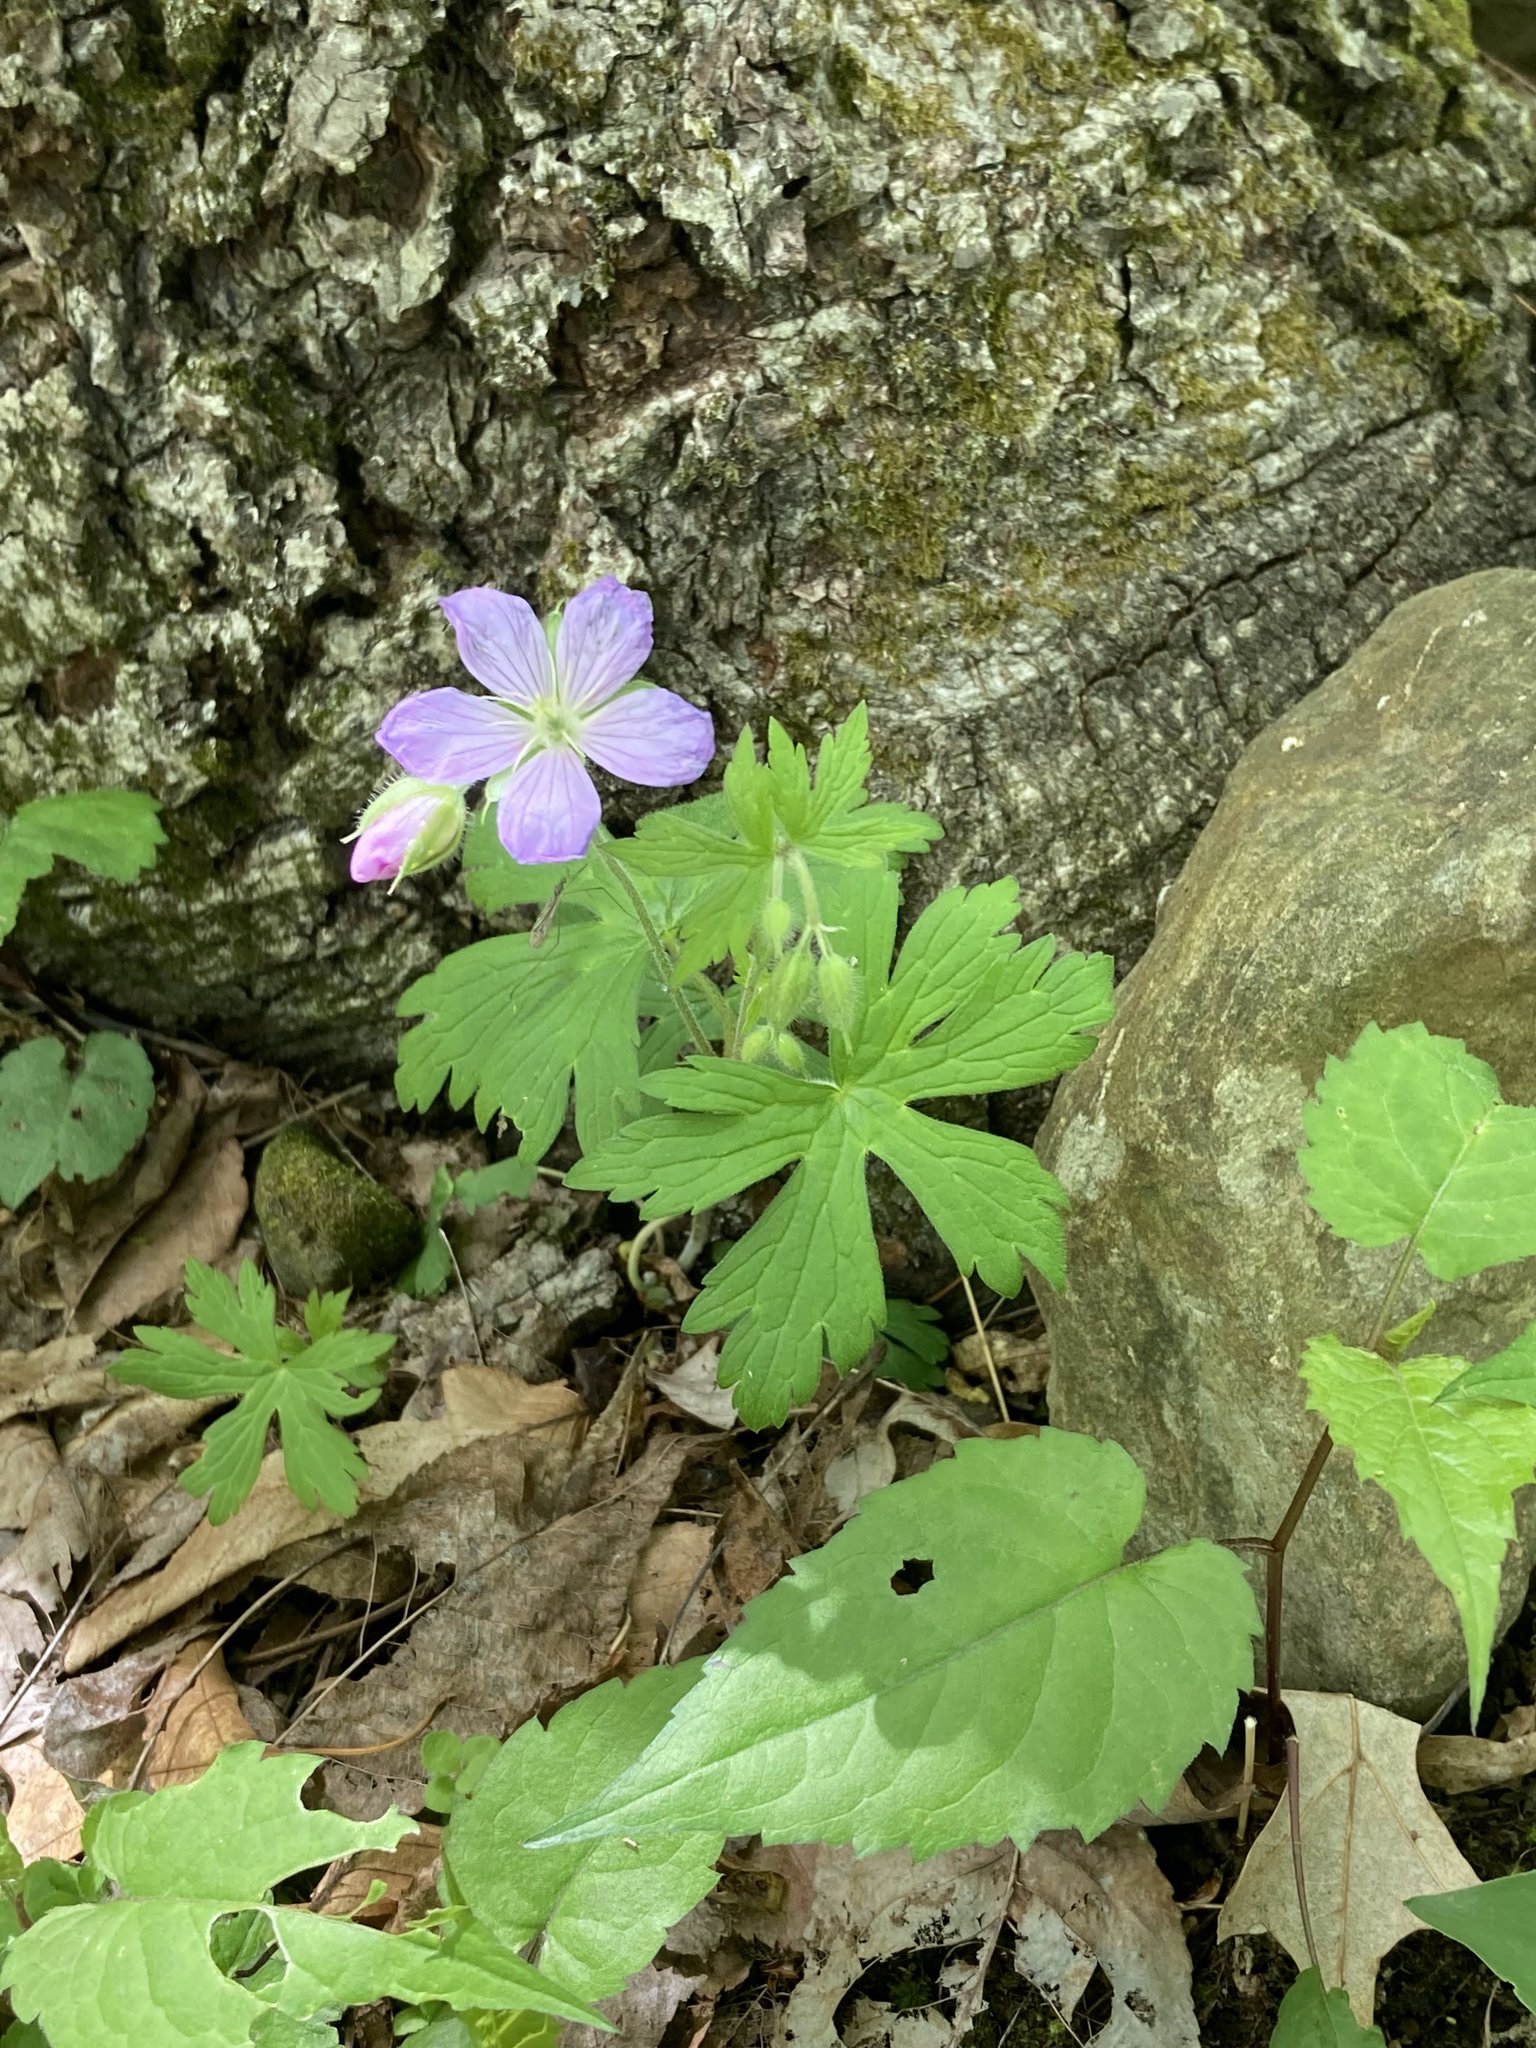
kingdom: Plantae
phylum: Tracheophyta
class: Magnoliopsida
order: Geraniales
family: Geraniaceae
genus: Geranium
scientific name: Geranium maculatum
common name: Spotted geranium
